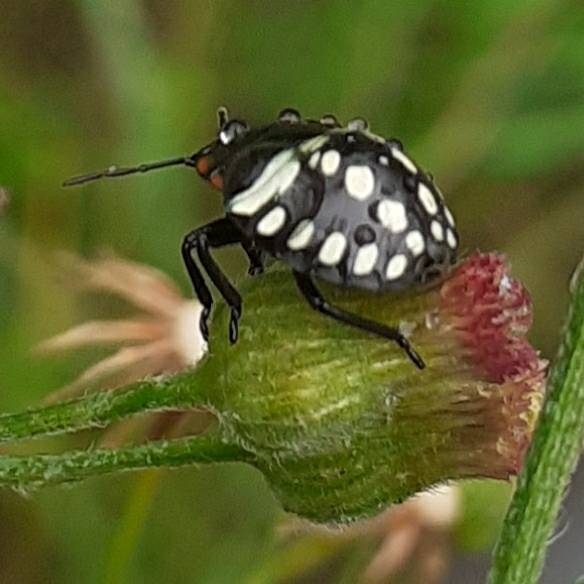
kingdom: Animalia
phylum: Arthropoda
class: Insecta
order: Hemiptera
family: Pentatomidae
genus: Nezara
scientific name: Nezara viridula
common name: Southern green stink bug
